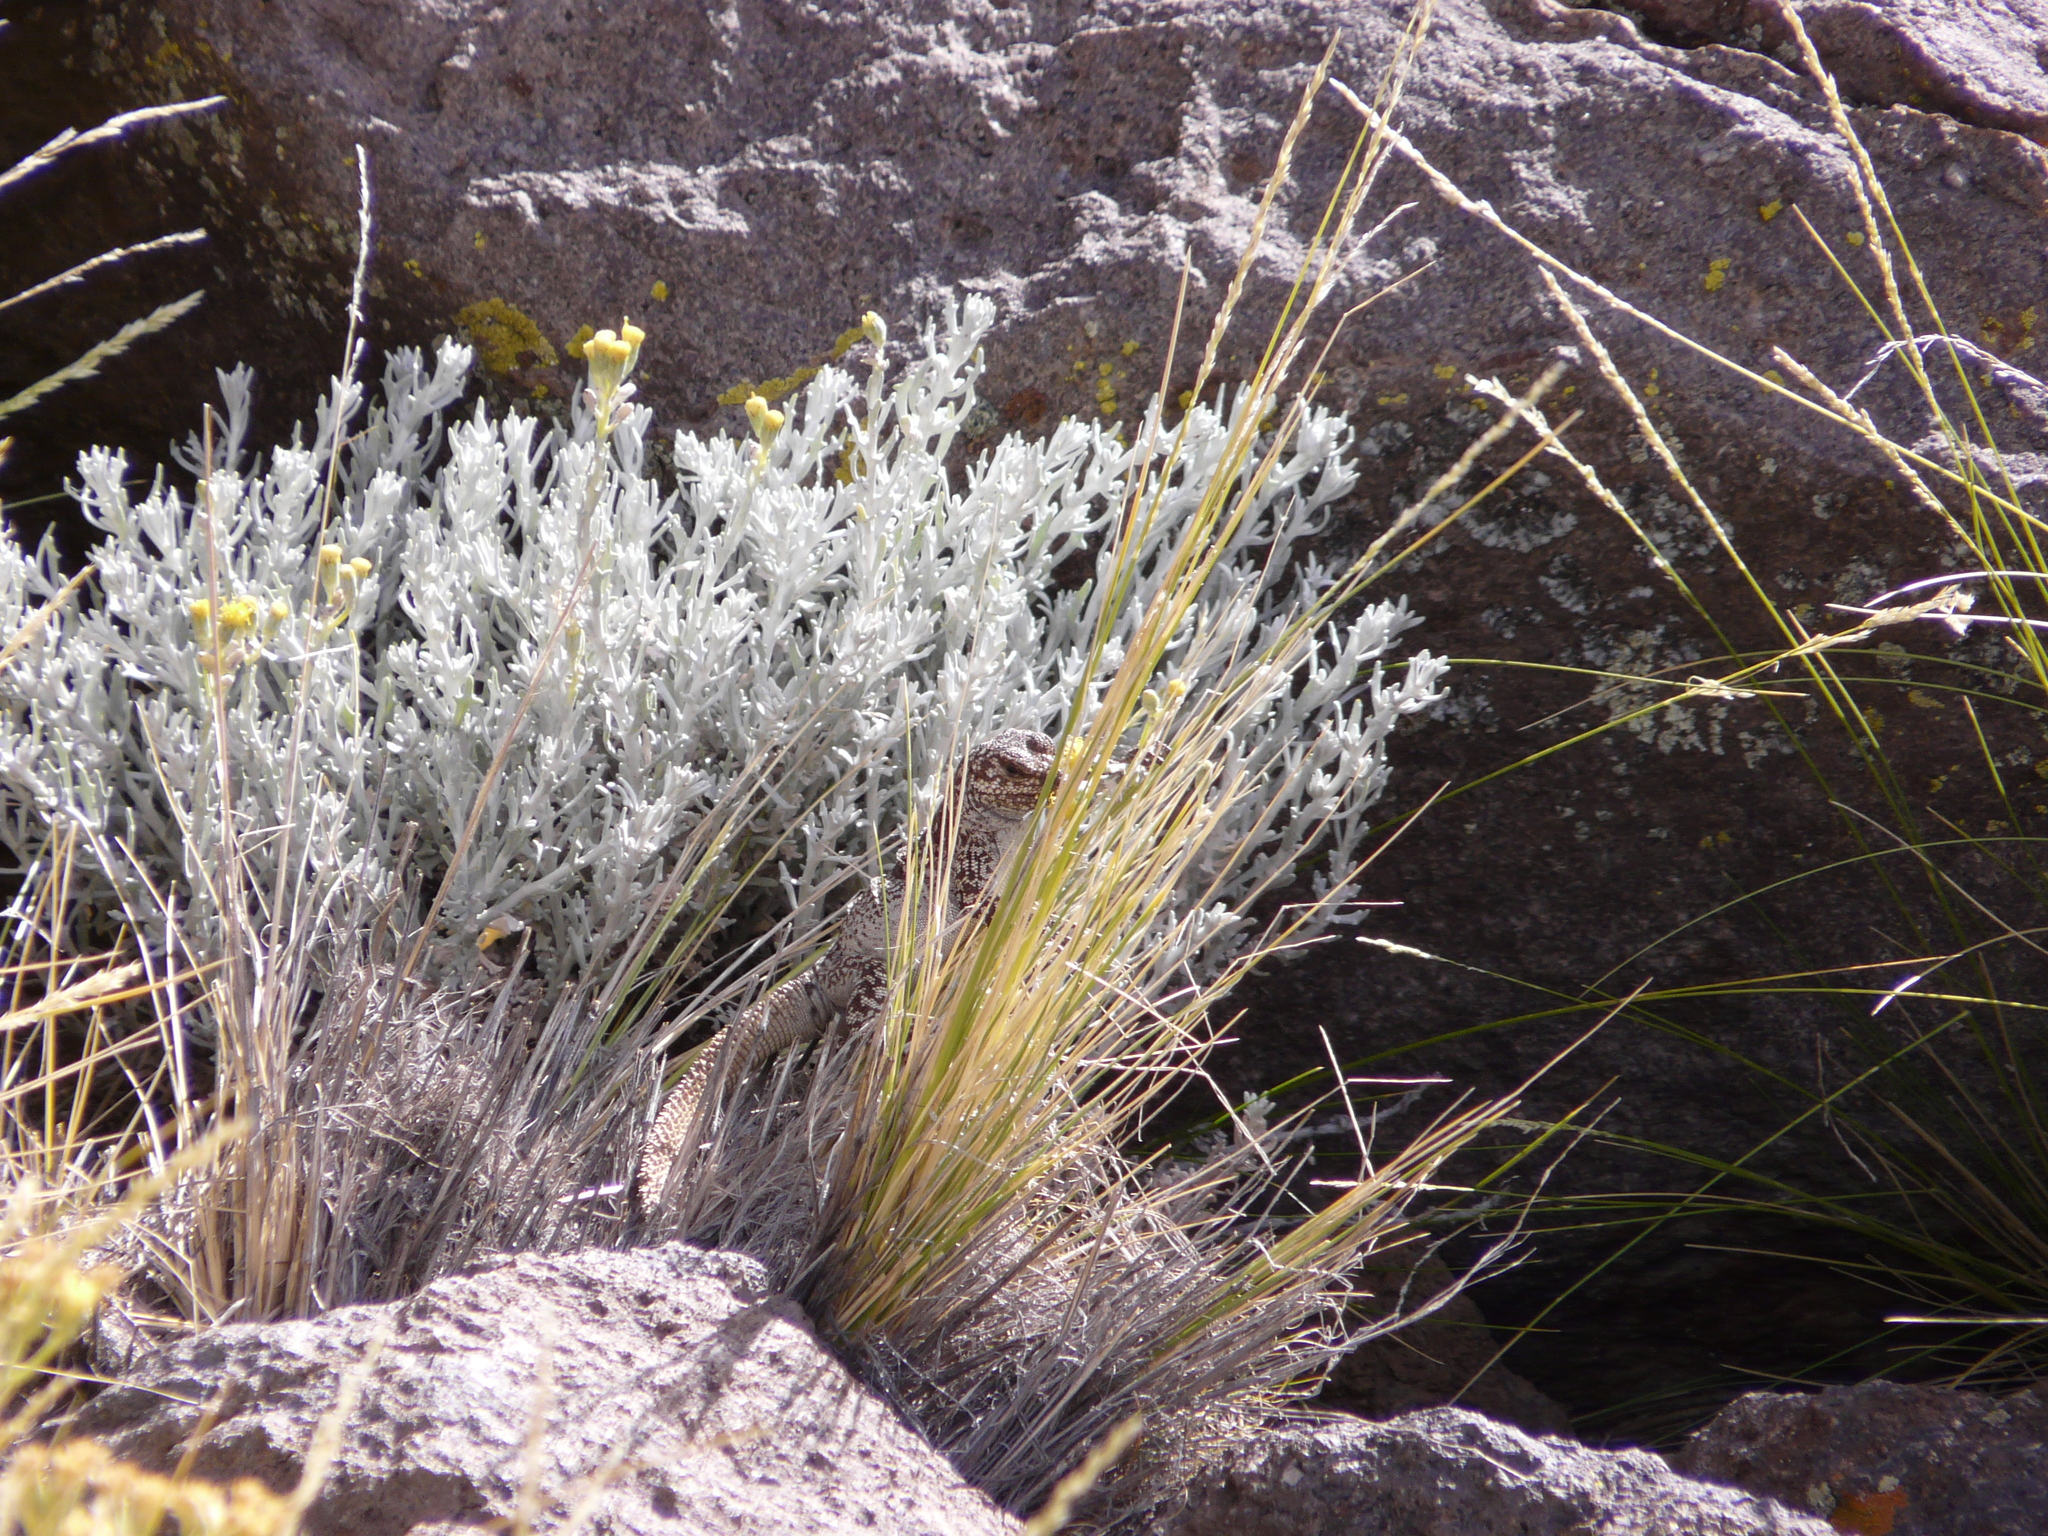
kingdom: Plantae
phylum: Tracheophyta
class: Magnoliopsida
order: Asterales
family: Asteraceae
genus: Senecio
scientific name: Senecio filaginoides
